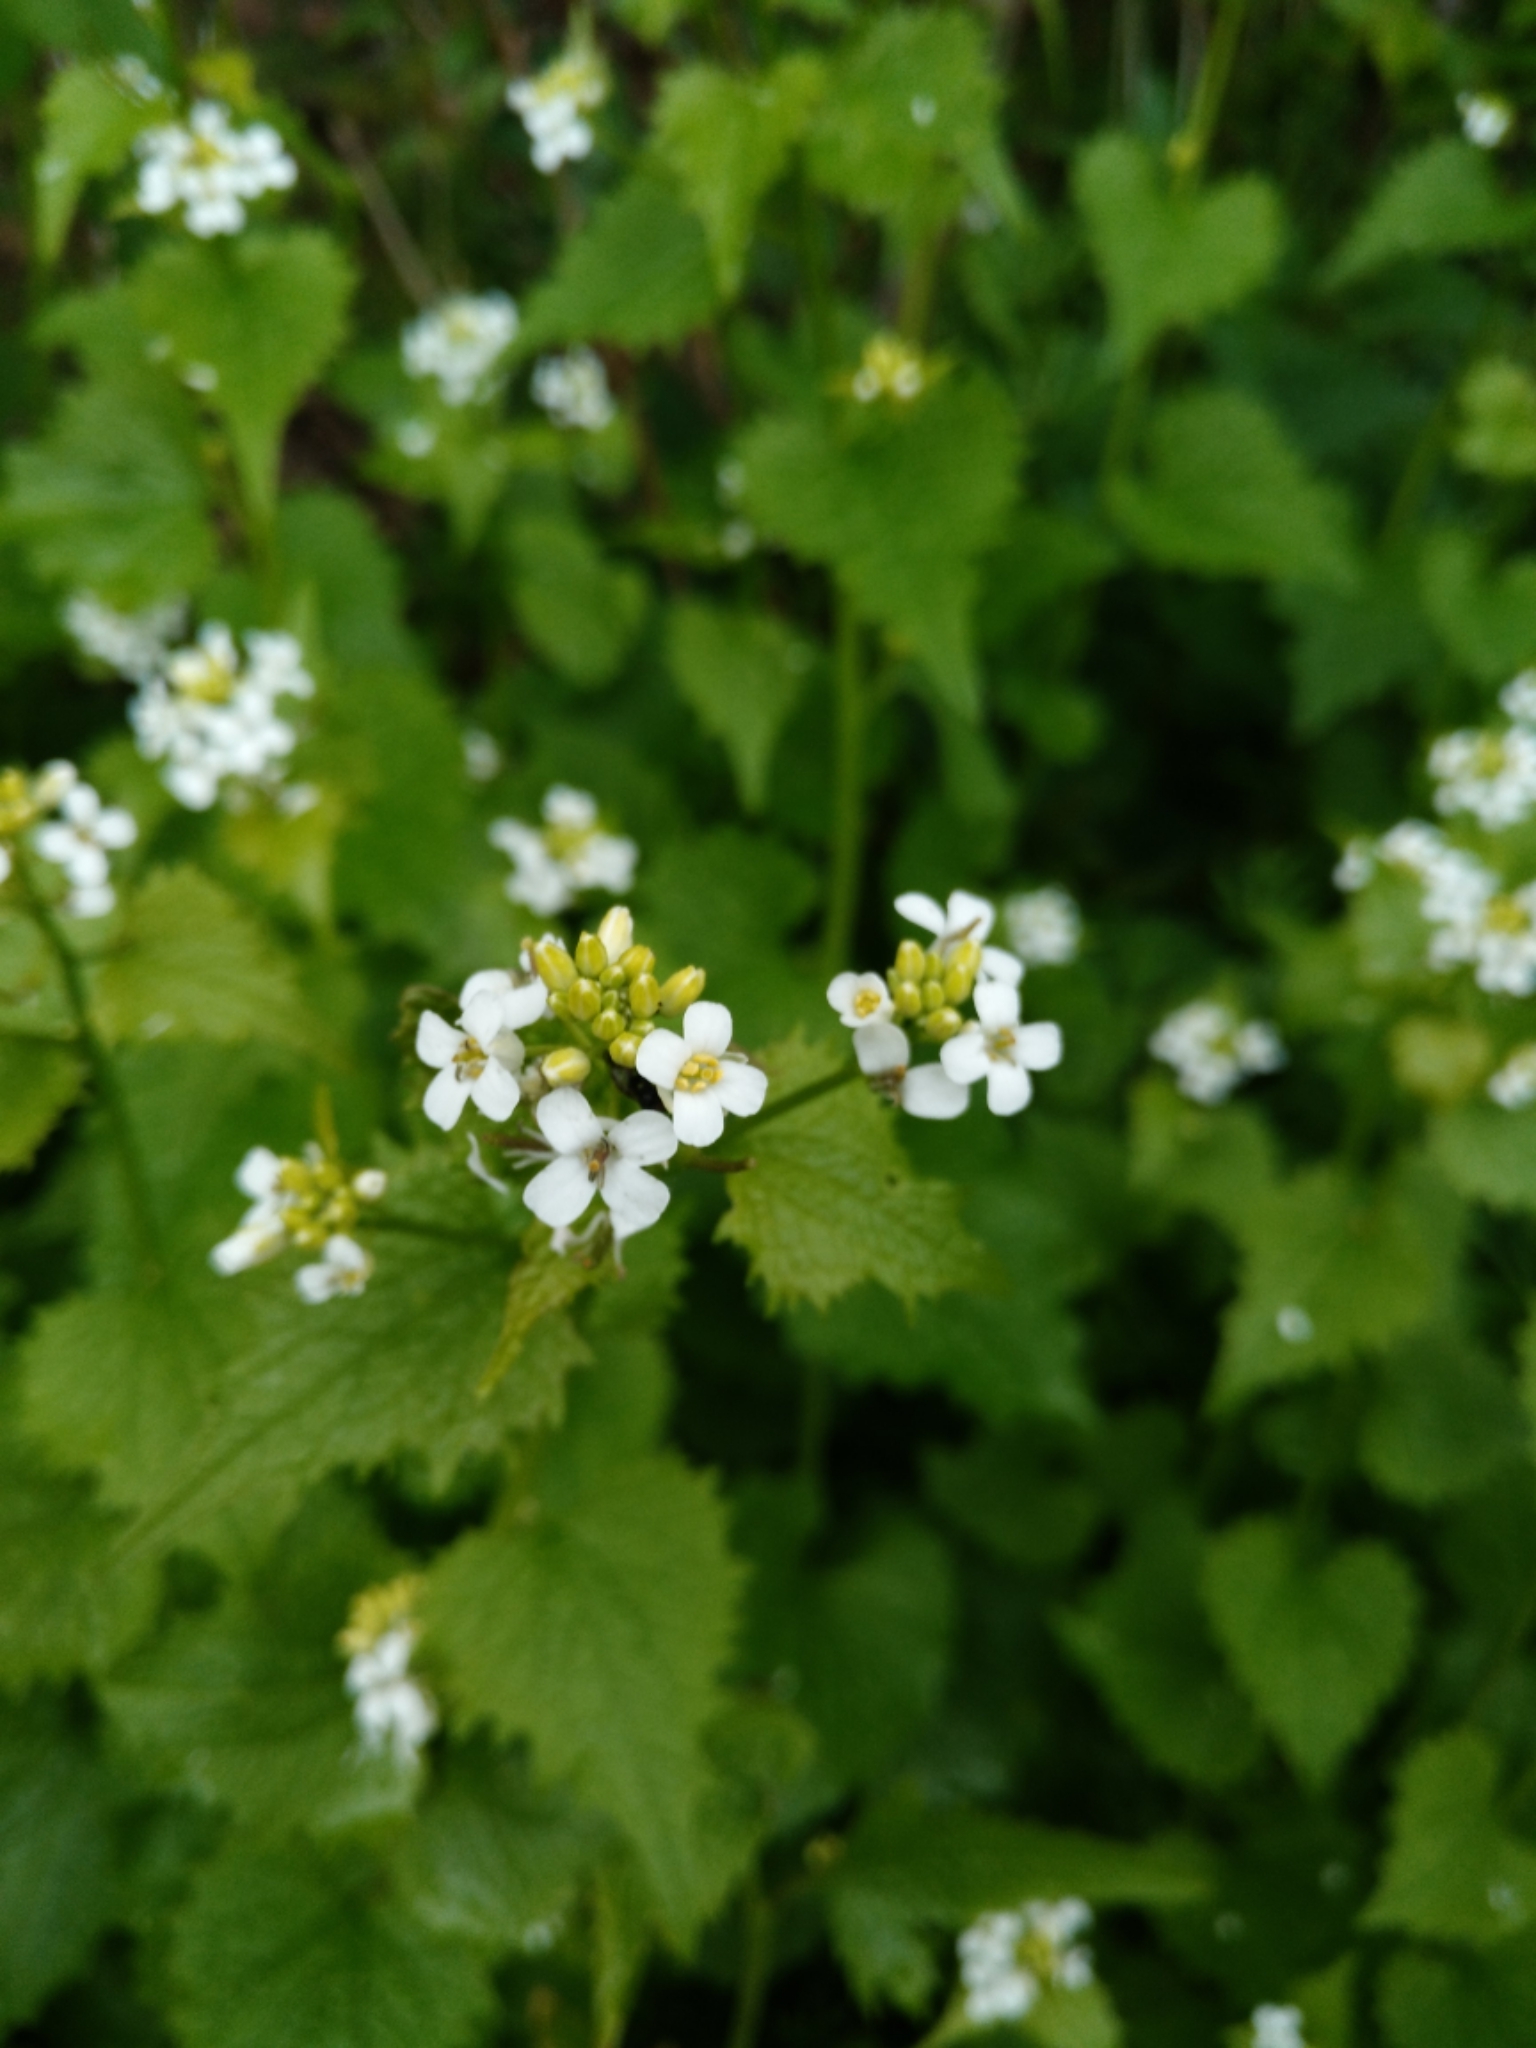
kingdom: Plantae
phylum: Tracheophyta
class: Magnoliopsida
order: Brassicales
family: Brassicaceae
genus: Alliaria
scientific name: Alliaria petiolata
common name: Garlic mustard
